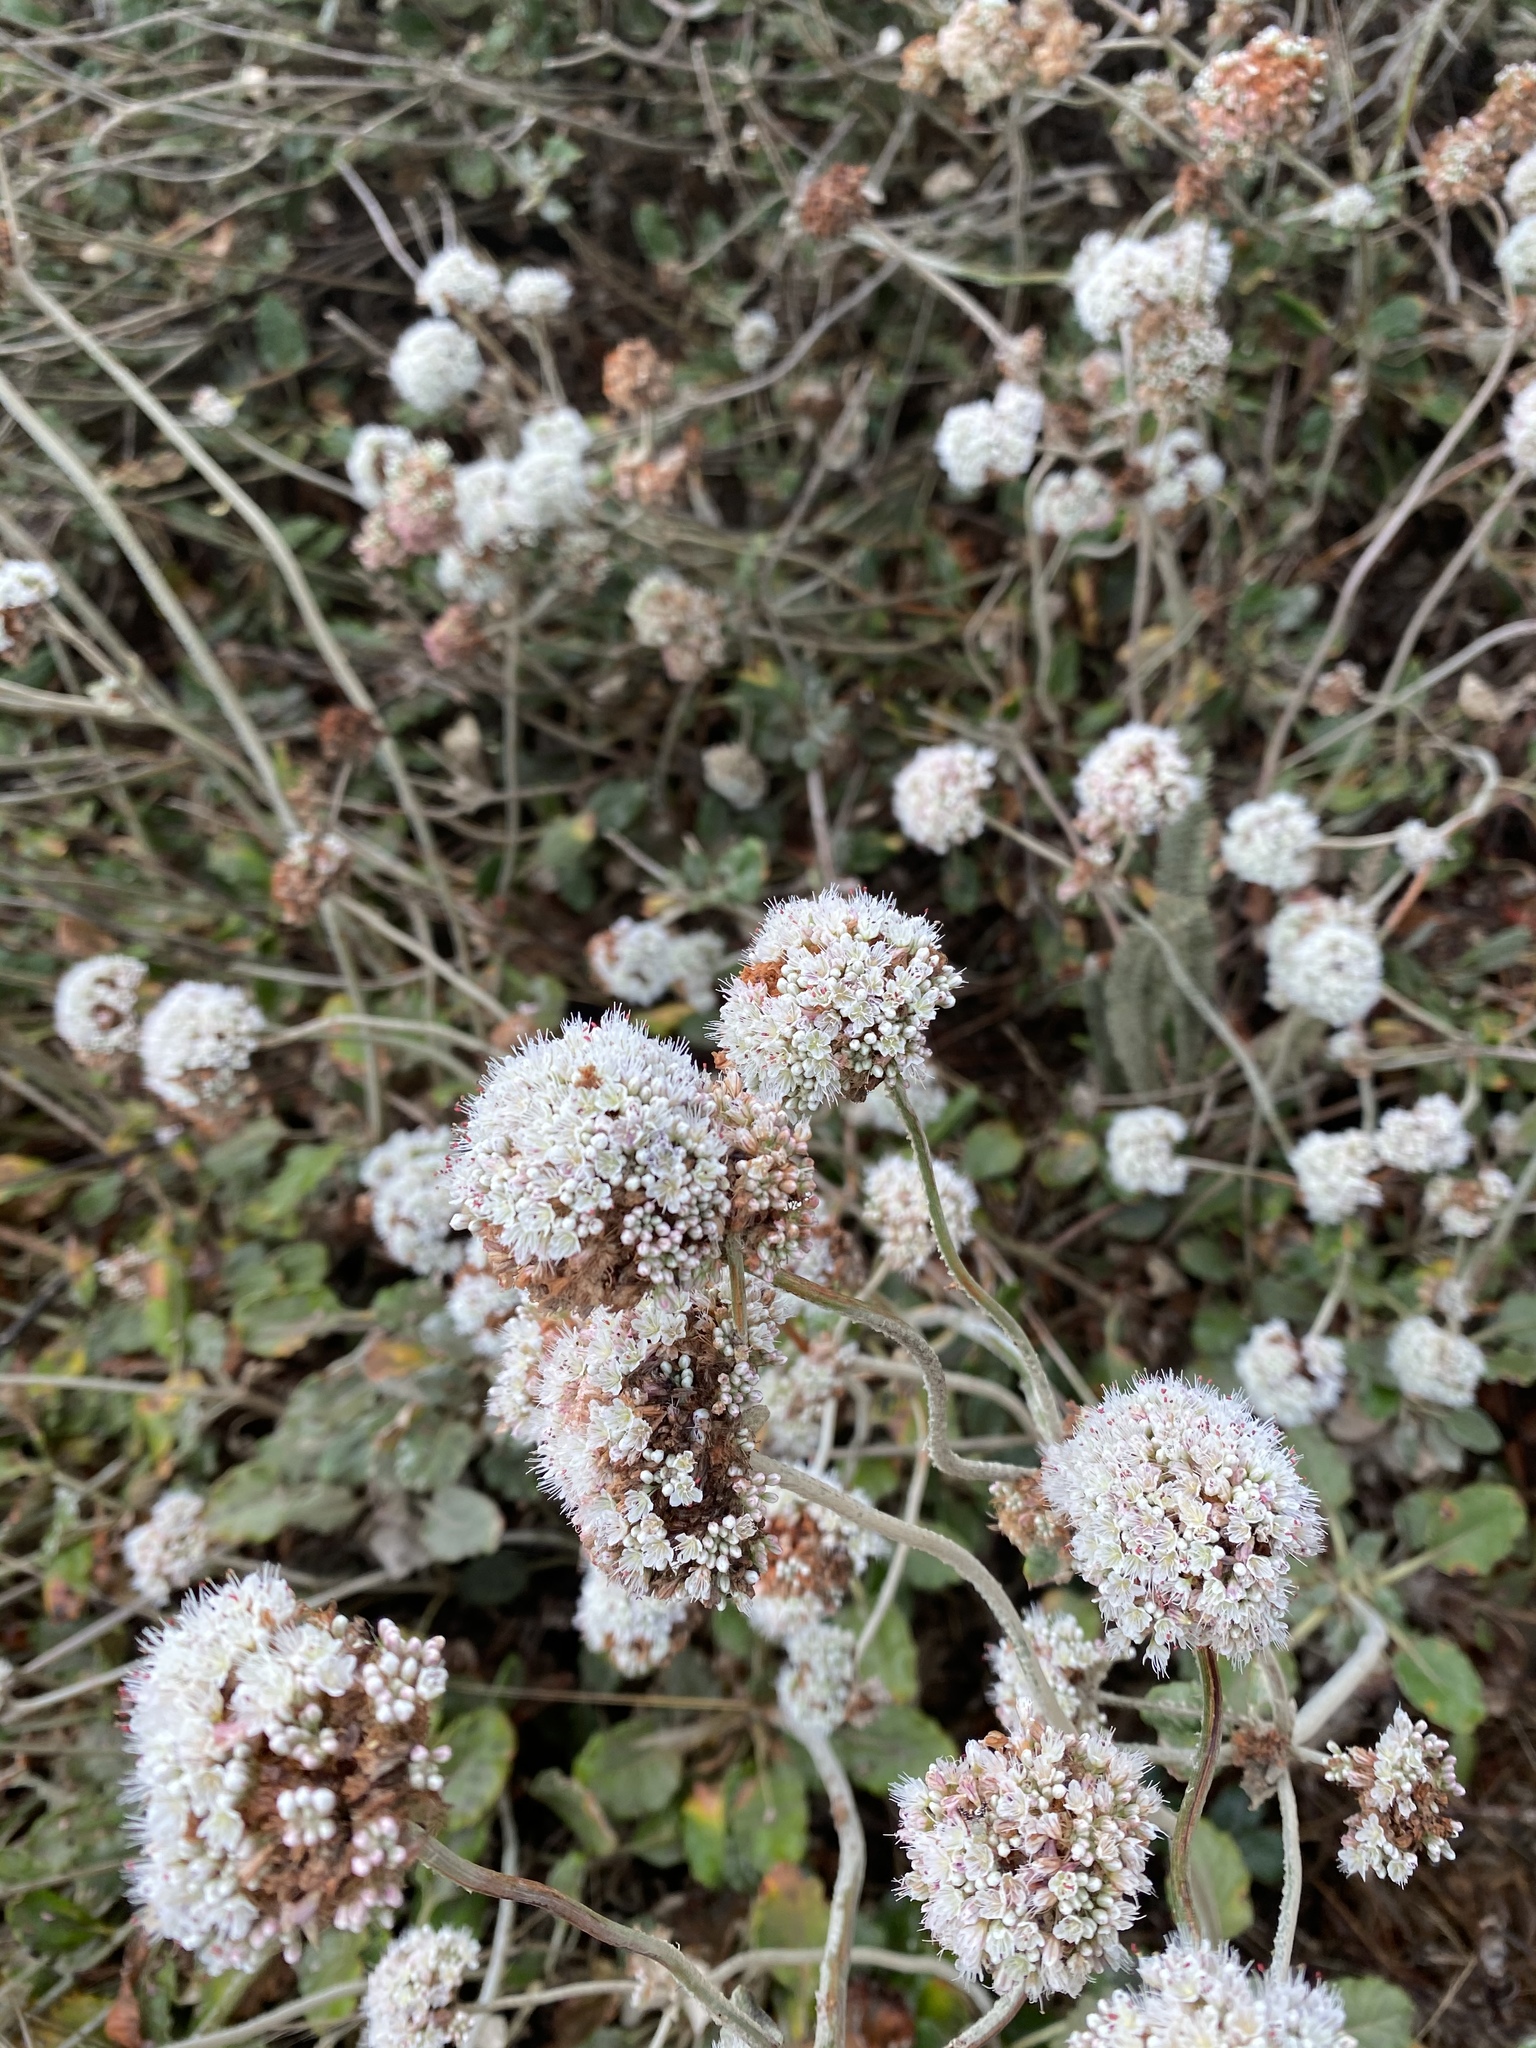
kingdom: Plantae
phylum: Tracheophyta
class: Magnoliopsida
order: Caryophyllales
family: Polygonaceae
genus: Eriogonum
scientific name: Eriogonum latifolium
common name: Seaside wild buckwheat
